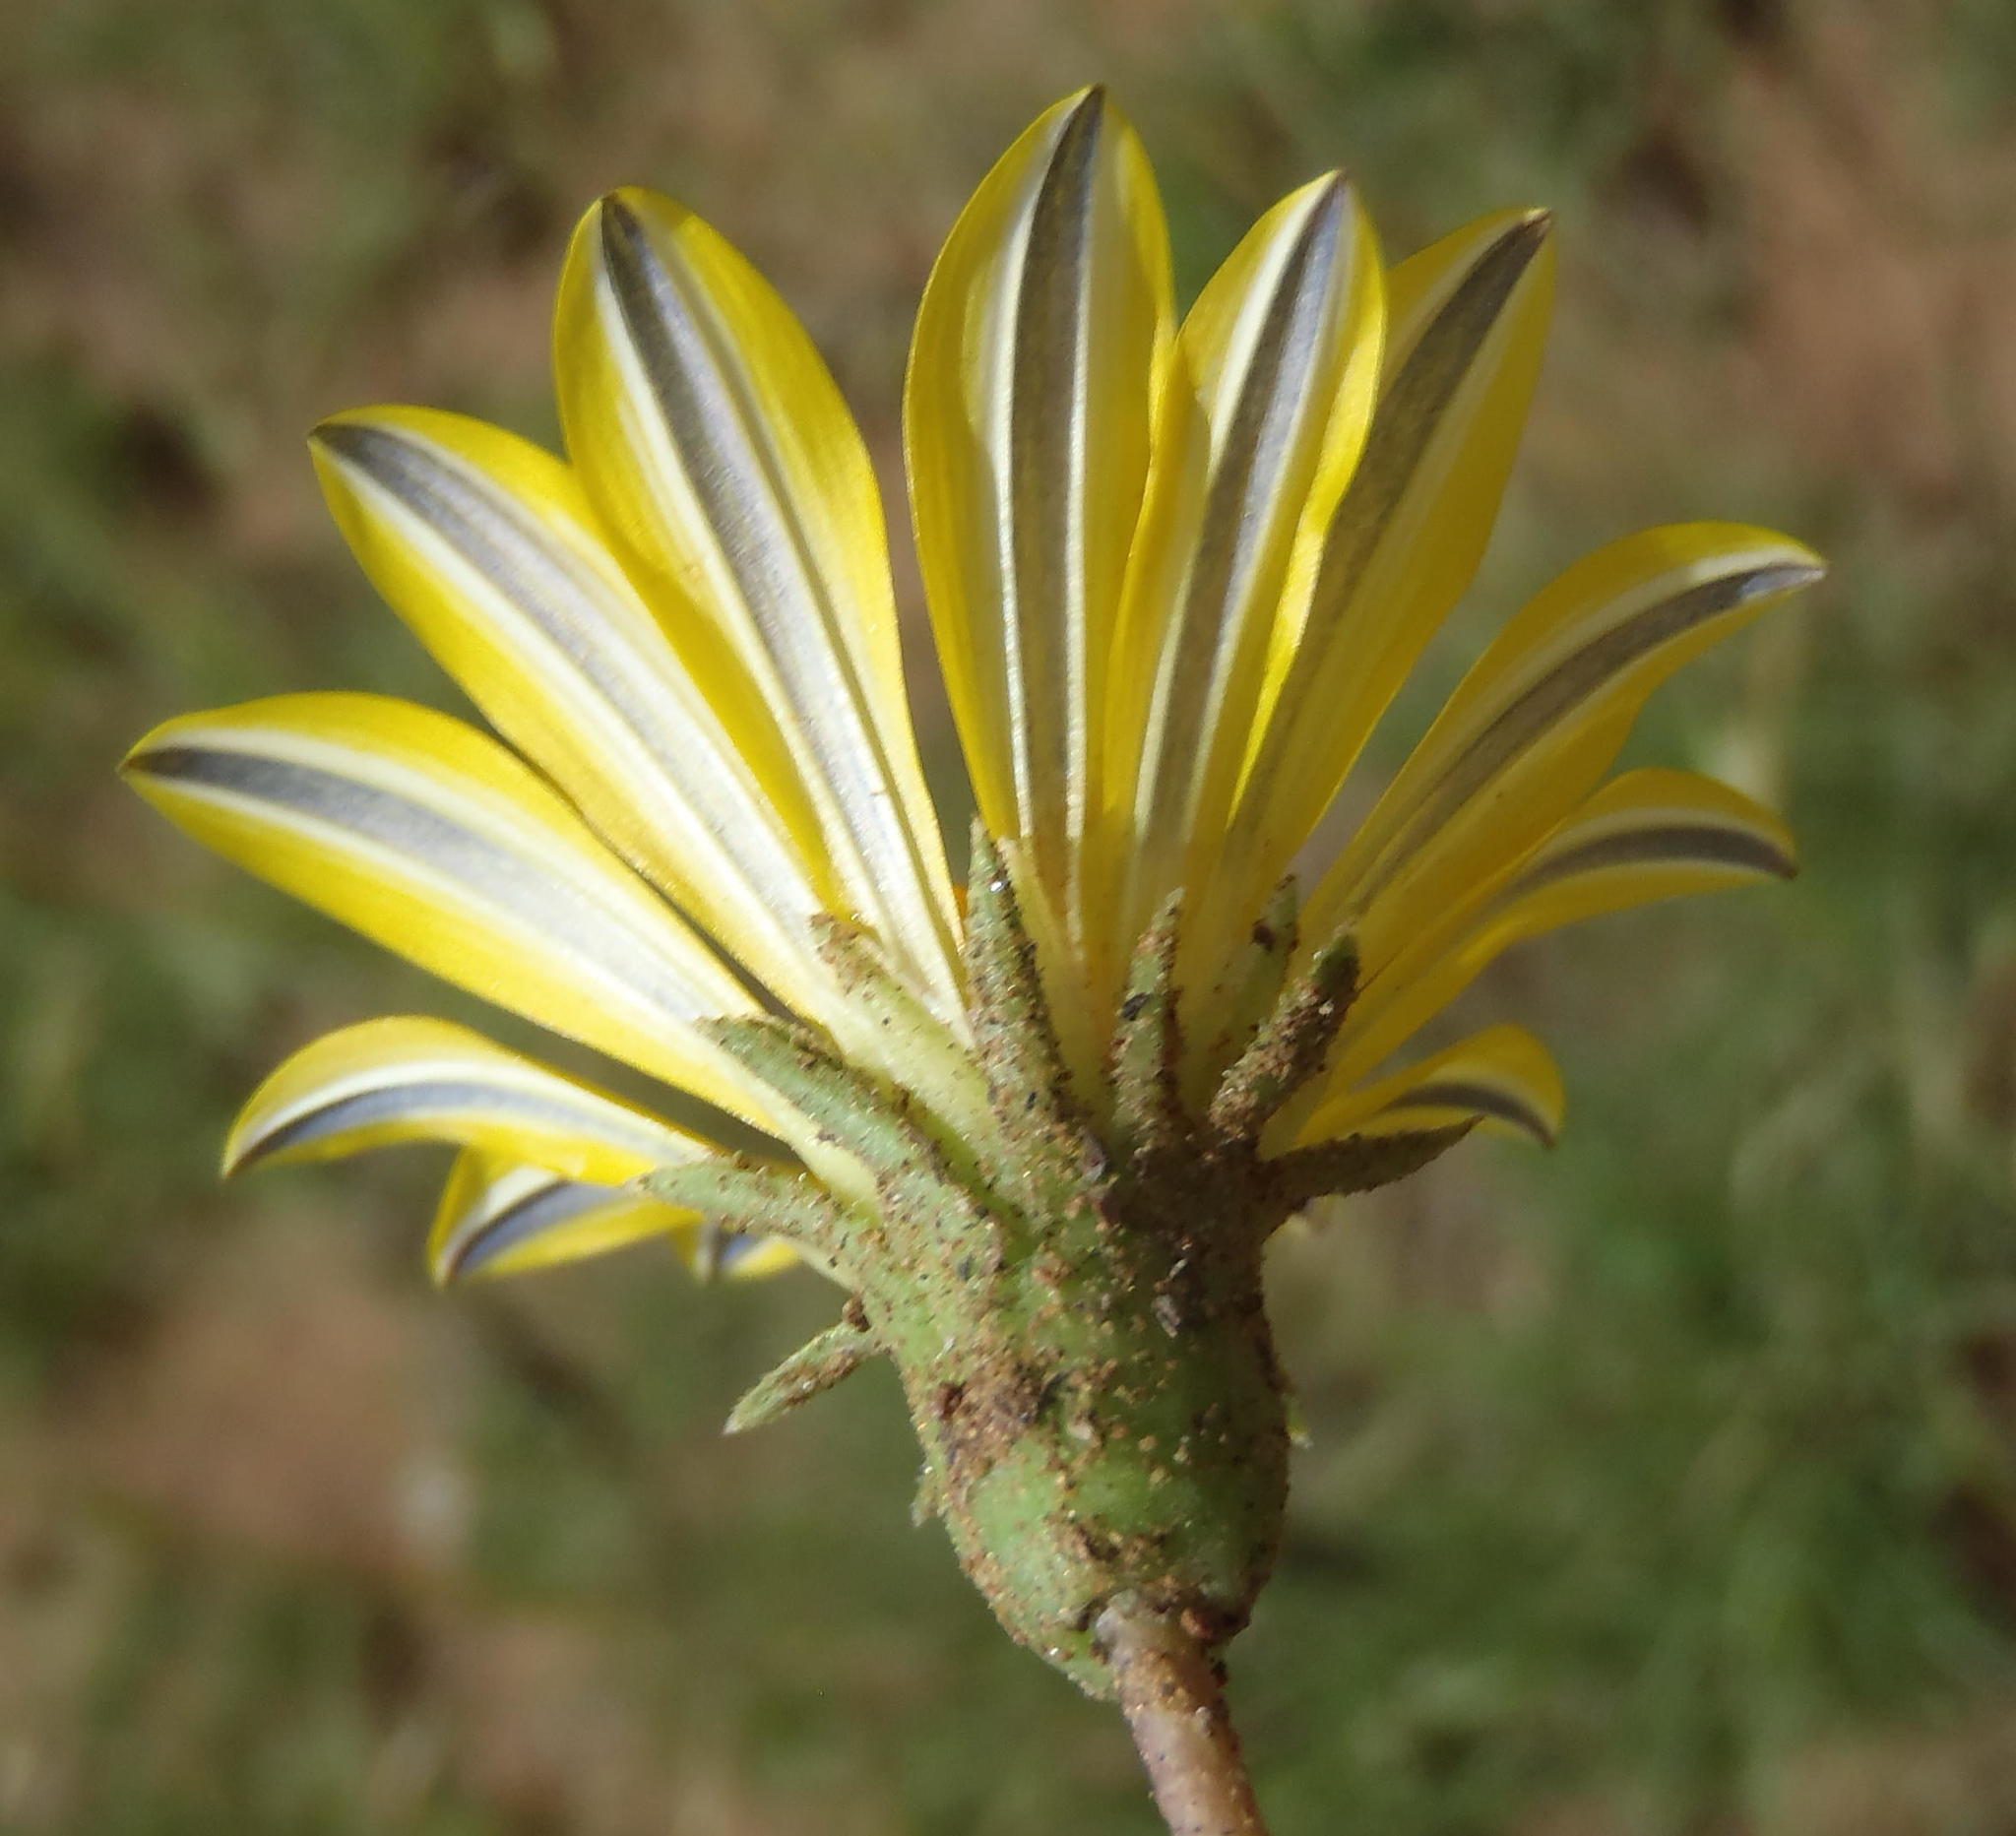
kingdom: Plantae
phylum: Tracheophyta
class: Magnoliopsida
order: Asterales
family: Asteraceae
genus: Gazania
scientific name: Gazania krebsiana
